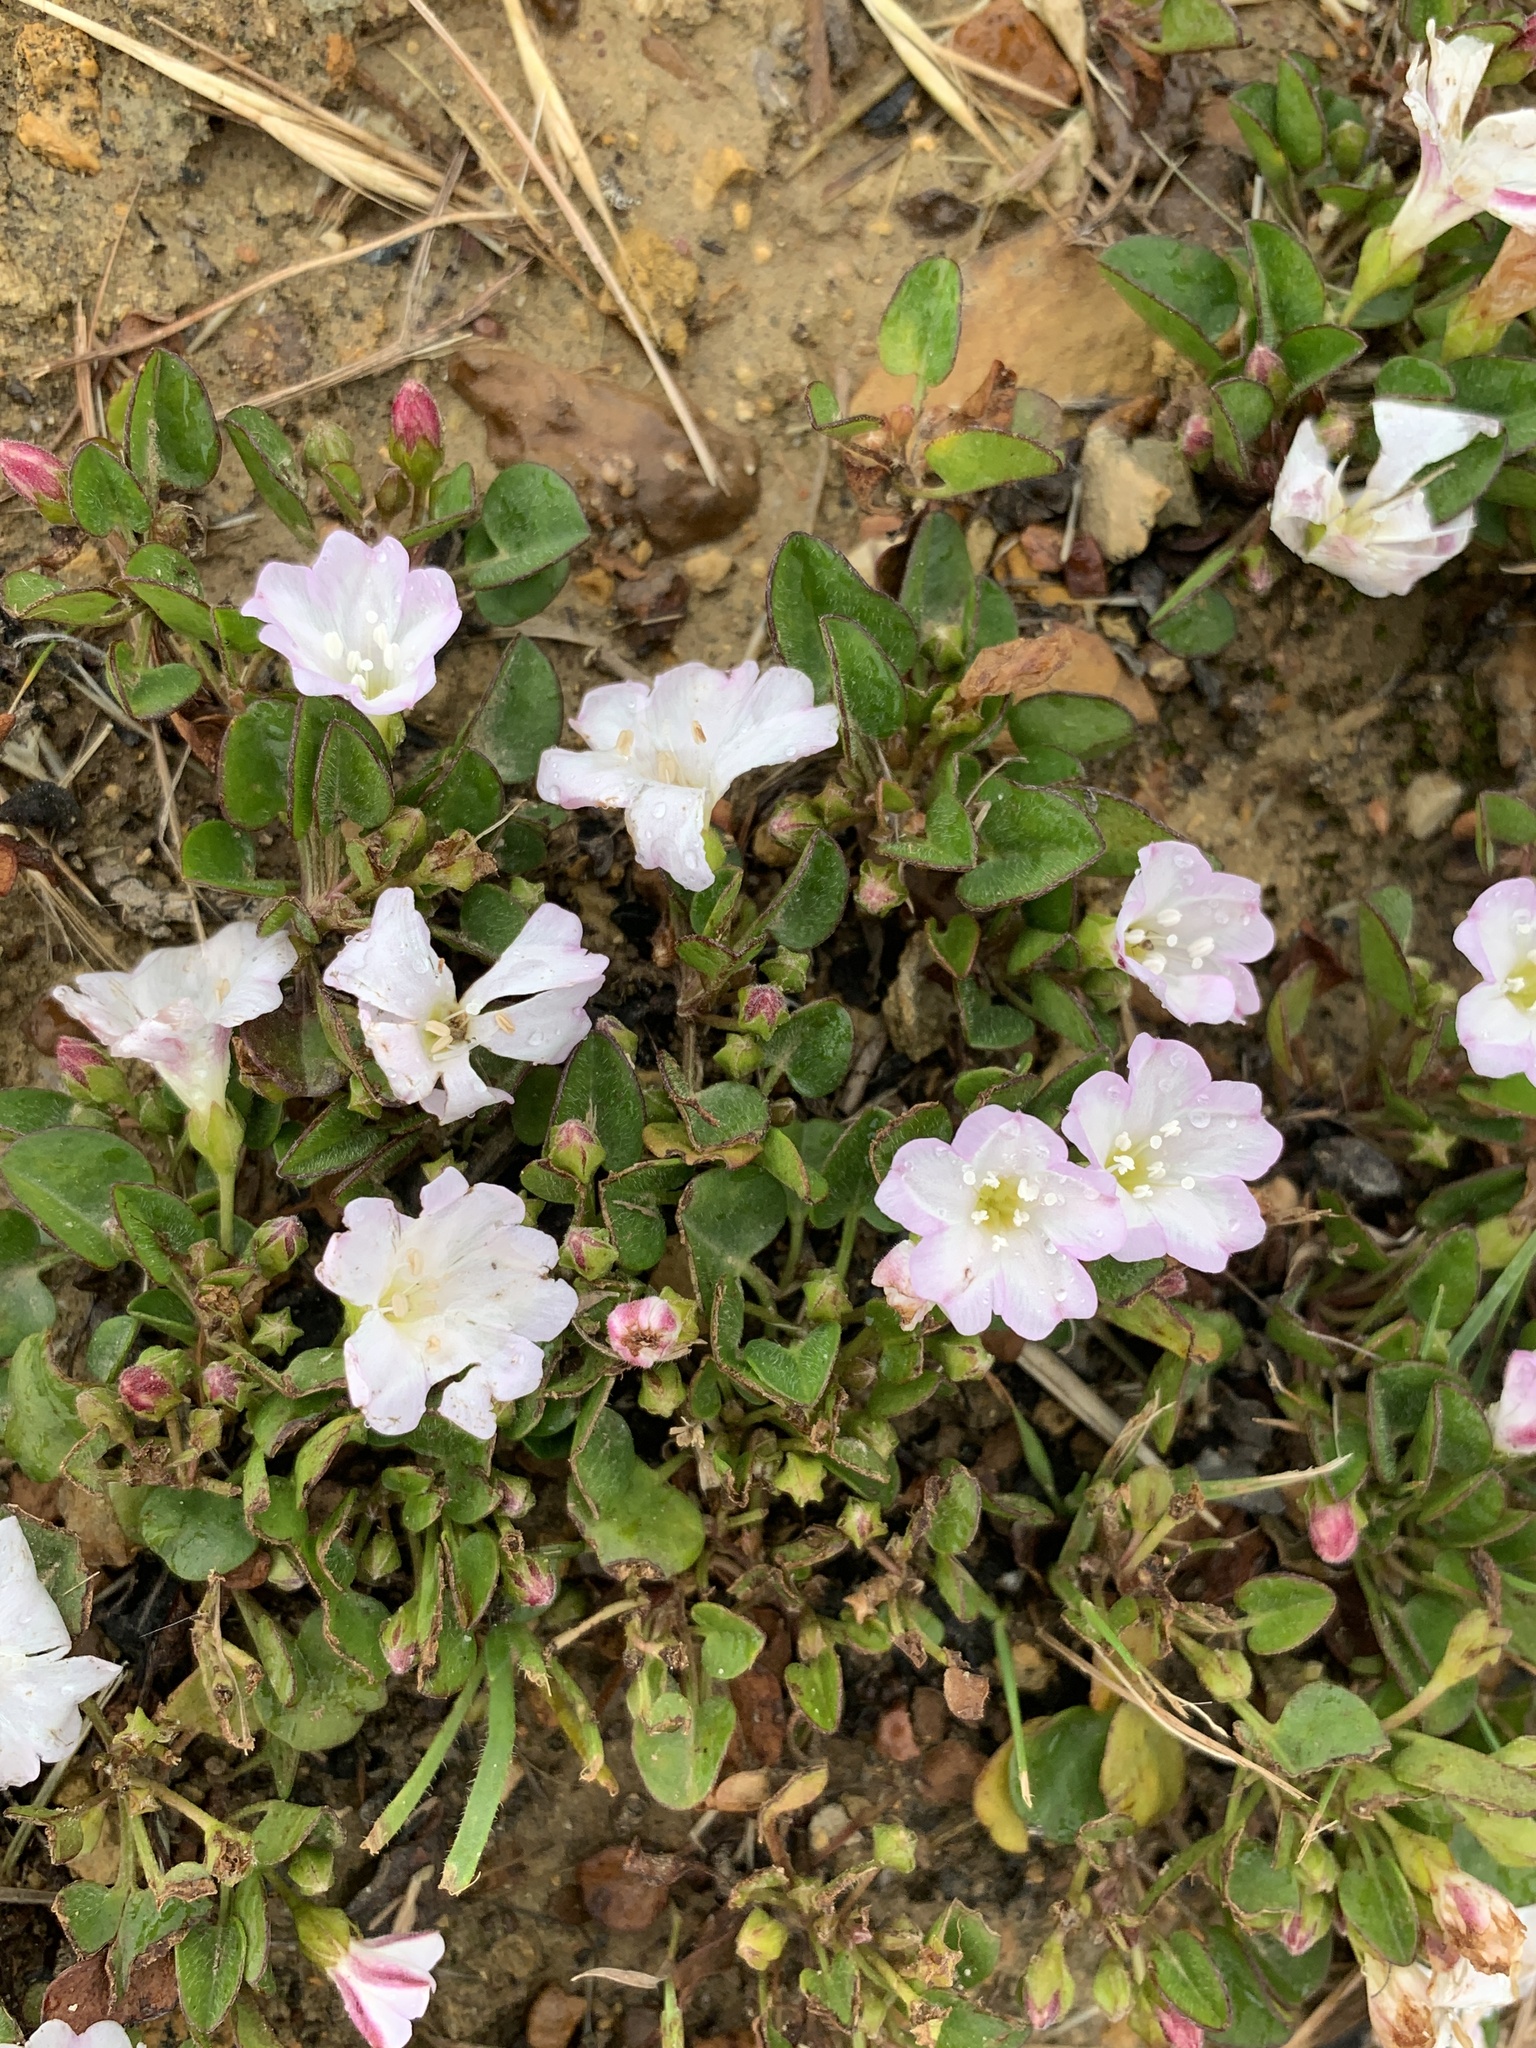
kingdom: Plantae
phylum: Tracheophyta
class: Magnoliopsida
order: Solanales
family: Convolvulaceae
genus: Falkia
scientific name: Falkia repens
